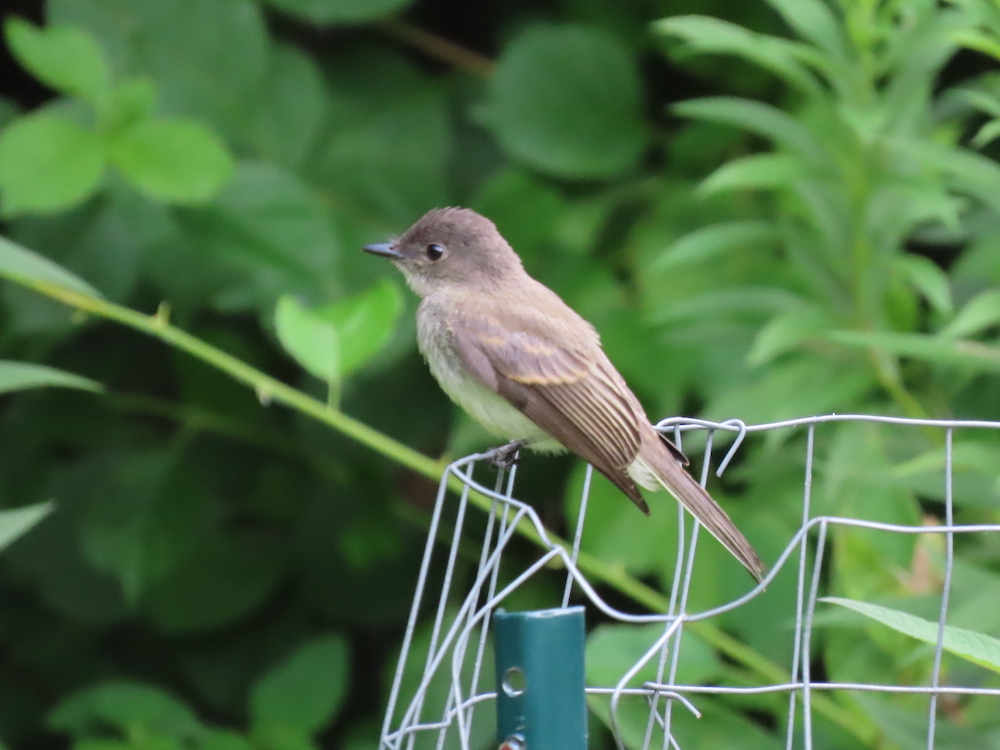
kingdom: Animalia
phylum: Chordata
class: Aves
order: Passeriformes
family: Tyrannidae
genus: Sayornis
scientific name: Sayornis phoebe
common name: Eastern phoebe
